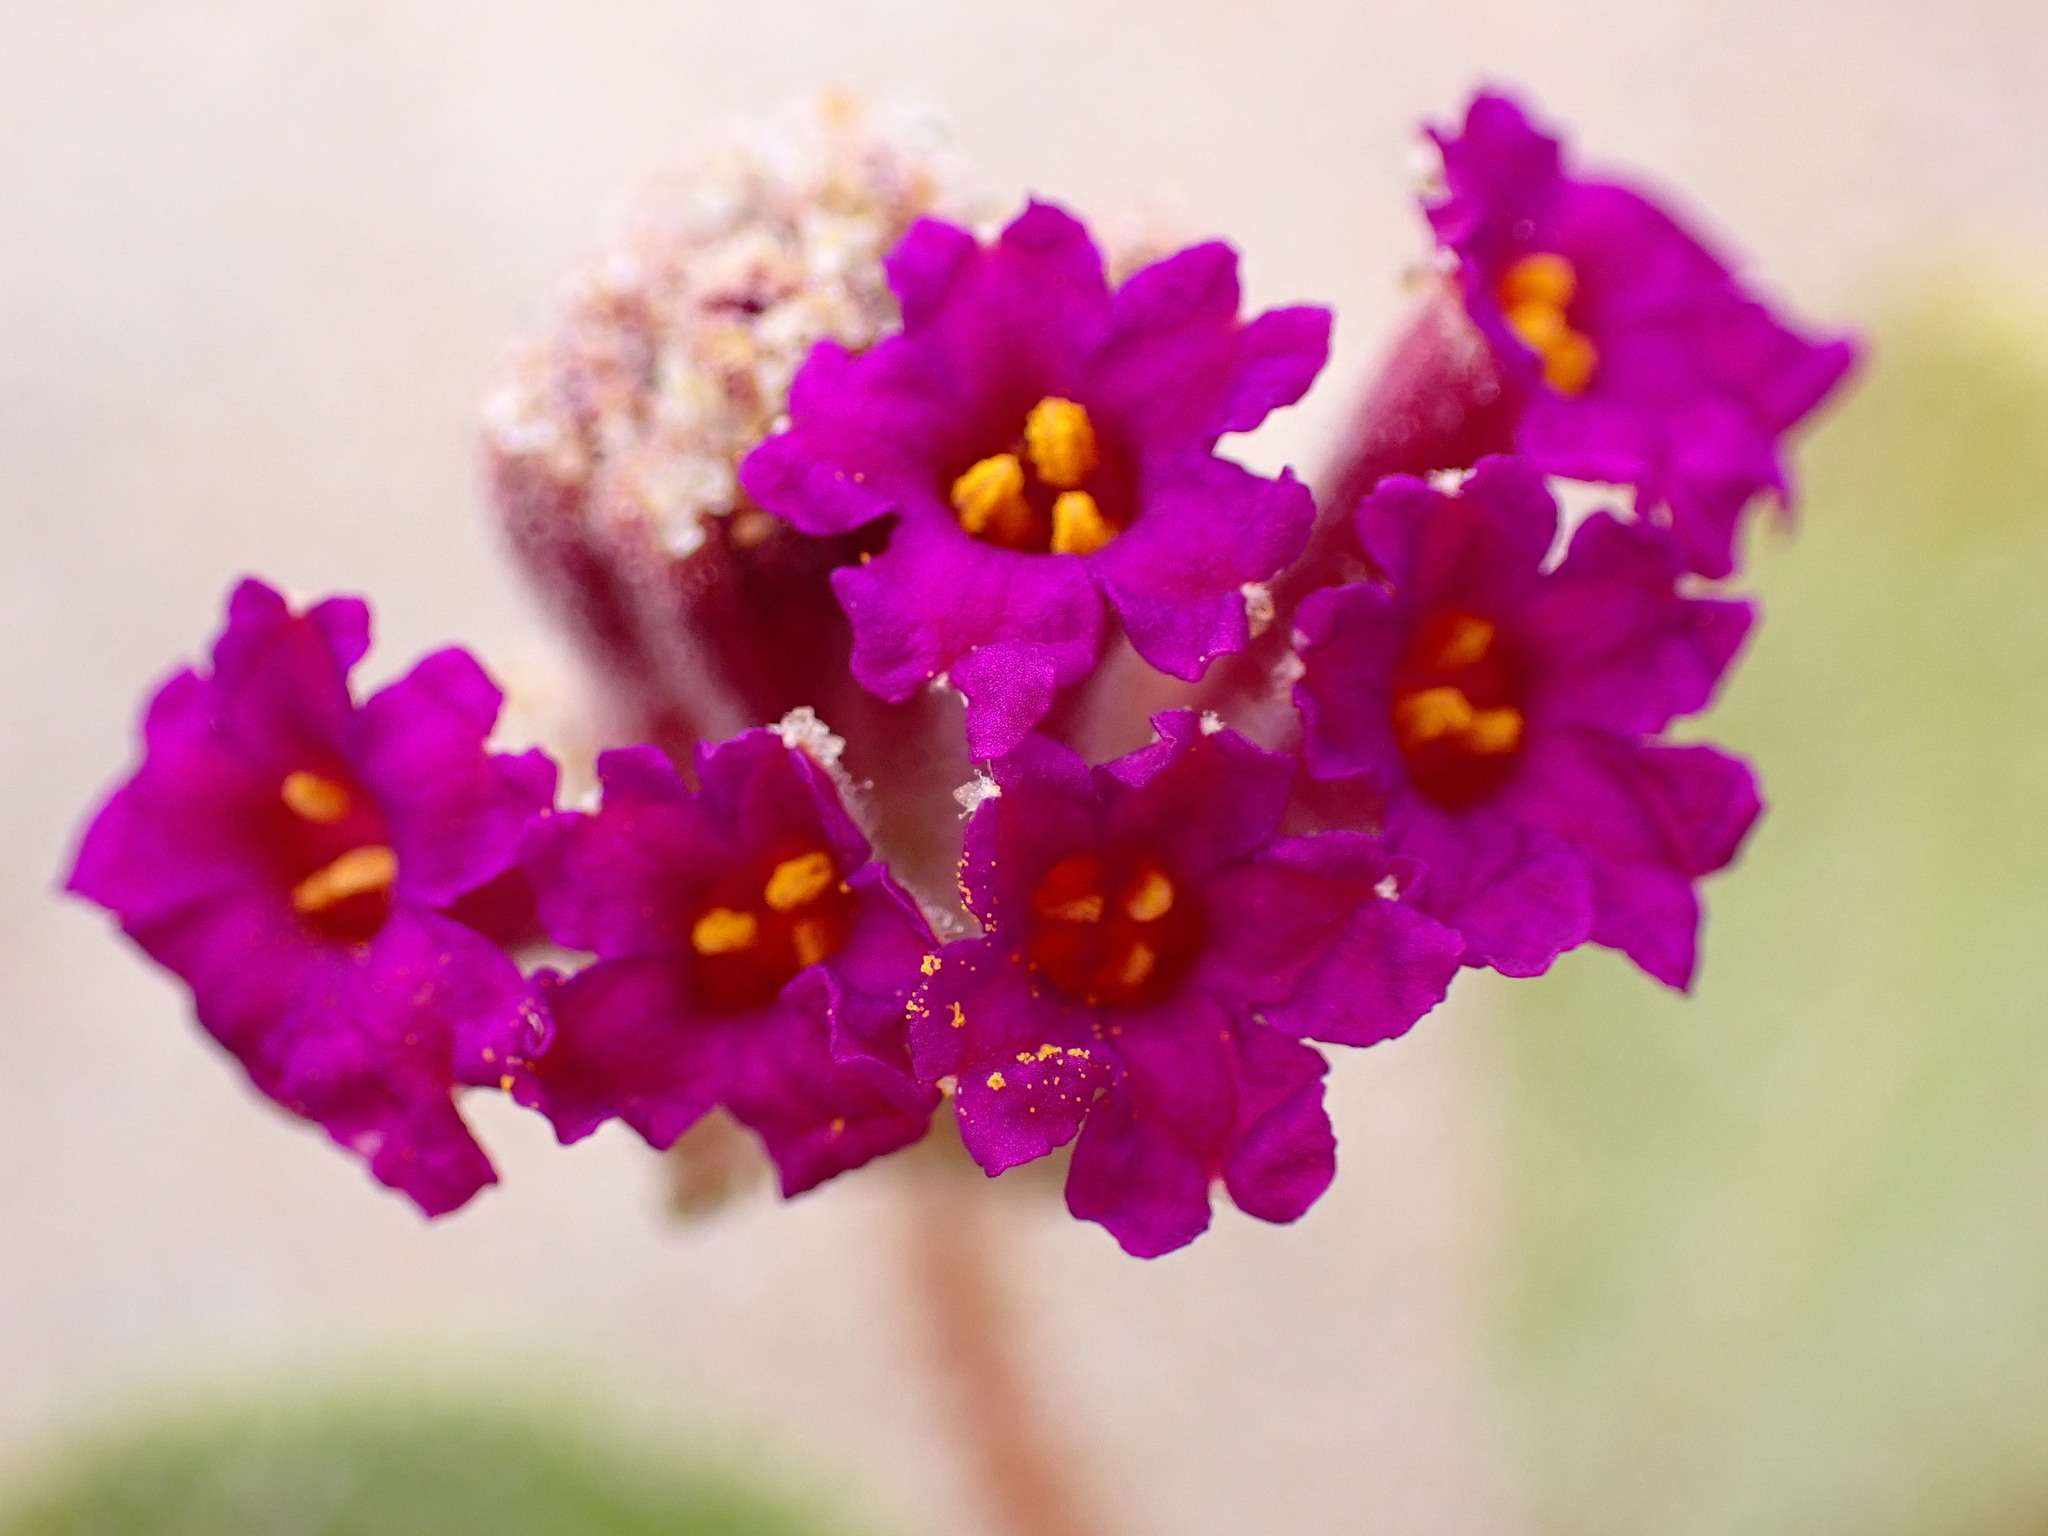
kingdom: Plantae
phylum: Tracheophyta
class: Magnoliopsida
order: Caryophyllales
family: Nyctaginaceae
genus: Abronia
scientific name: Abronia maritima
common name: Red sand-verbena
